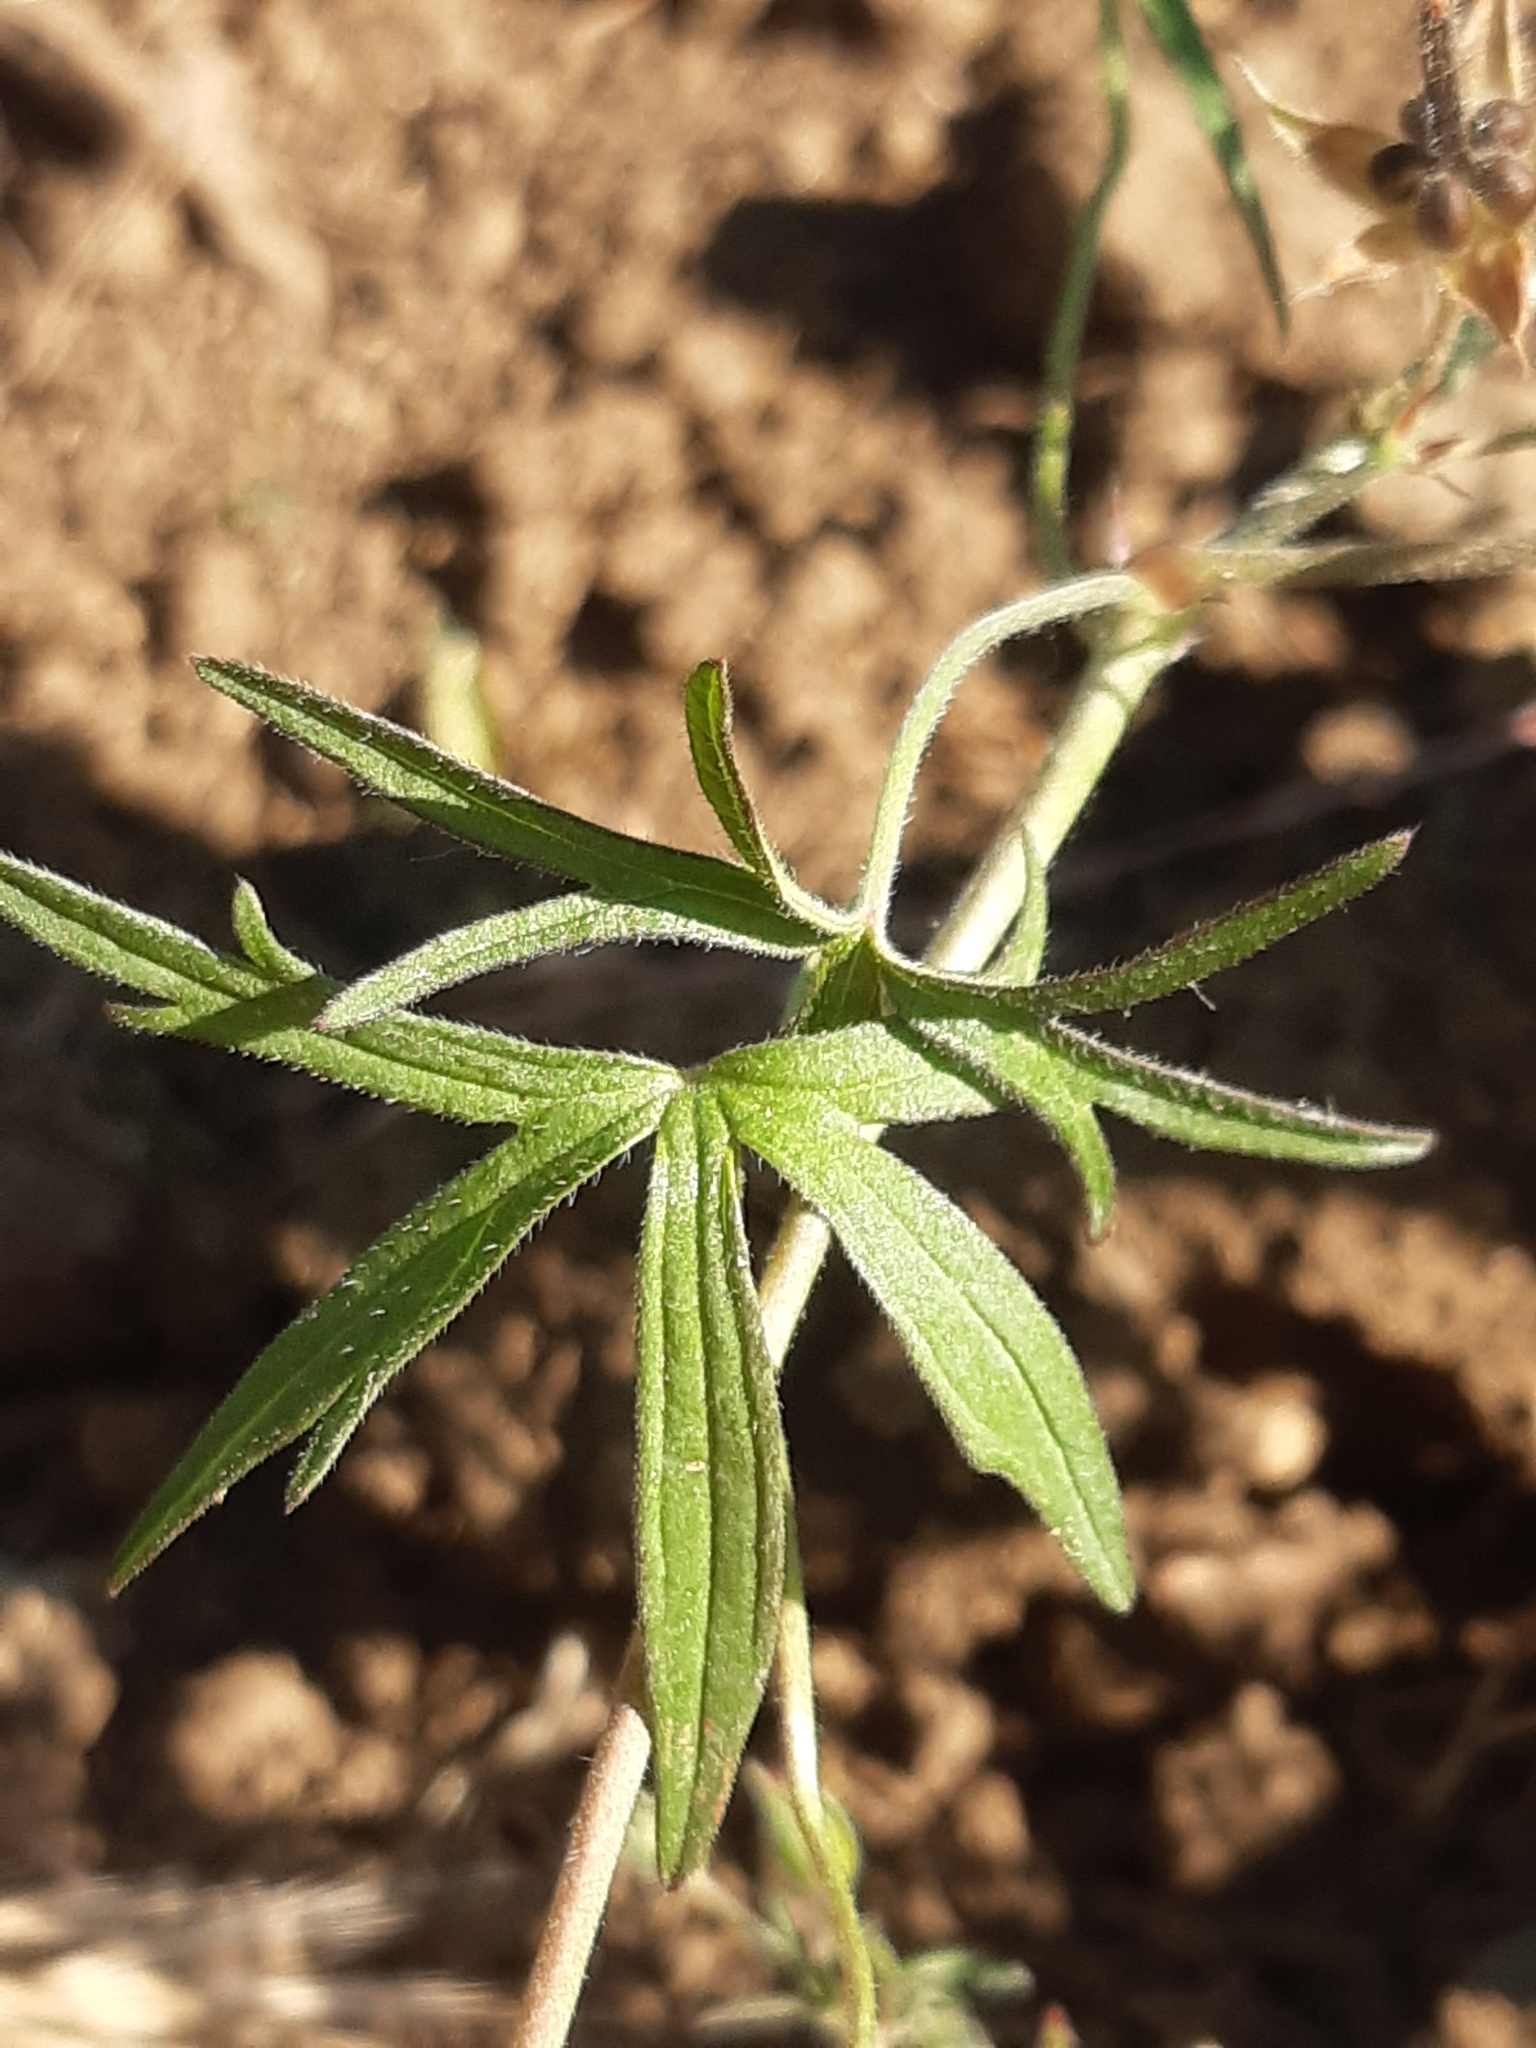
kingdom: Plantae
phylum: Tracheophyta
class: Magnoliopsida
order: Geraniales
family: Geraniaceae
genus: Geranium
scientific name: Geranium dissectum
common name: Cut-leaved crane's-bill
